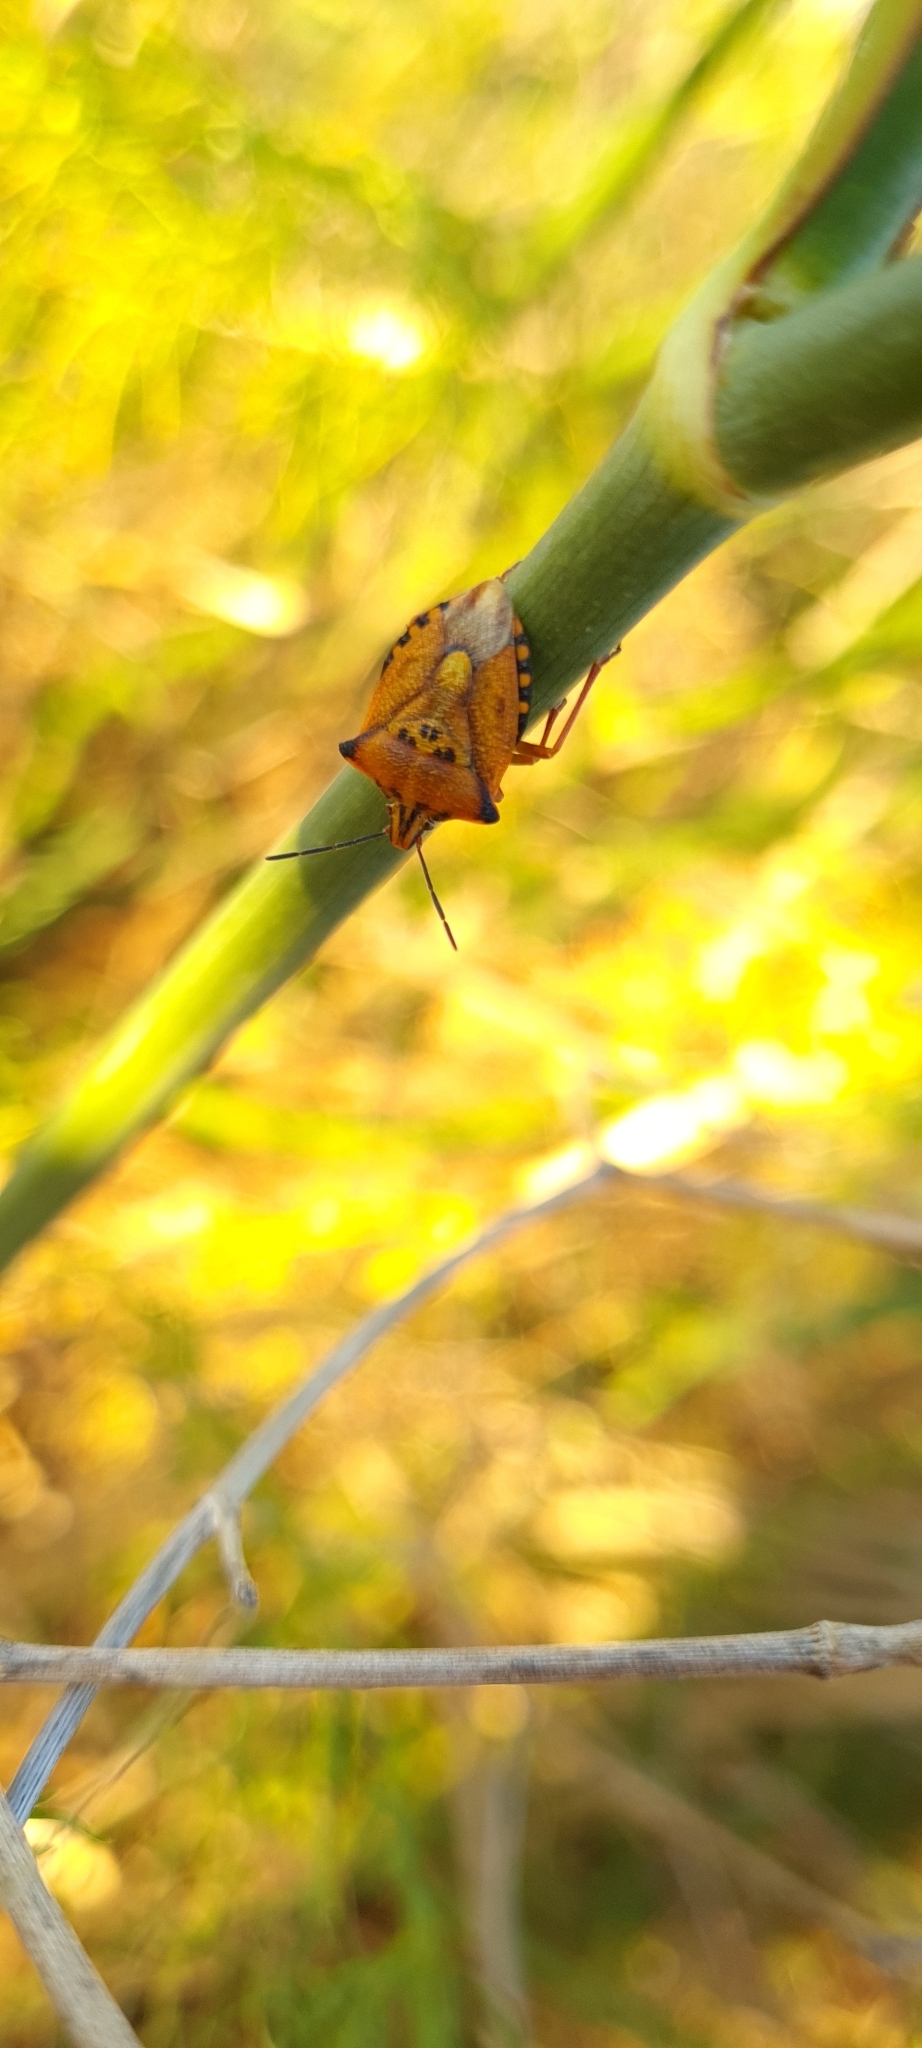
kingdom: Animalia
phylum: Arthropoda
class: Insecta
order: Hemiptera
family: Pentatomidae
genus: Carpocoris
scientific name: Carpocoris mediterraneus
